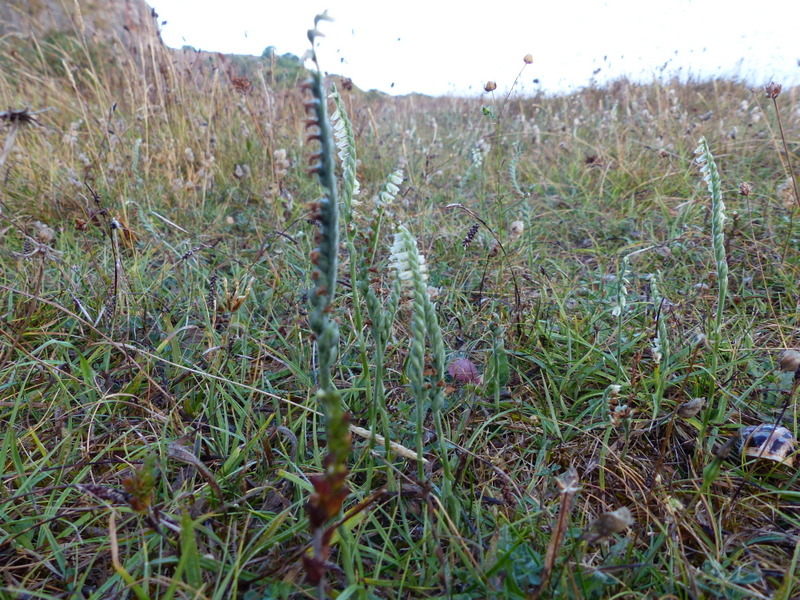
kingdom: Plantae
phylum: Tracheophyta
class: Liliopsida
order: Asparagales
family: Orchidaceae
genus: Spiranthes
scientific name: Spiranthes spiralis
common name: Autumn lady's-tresses
